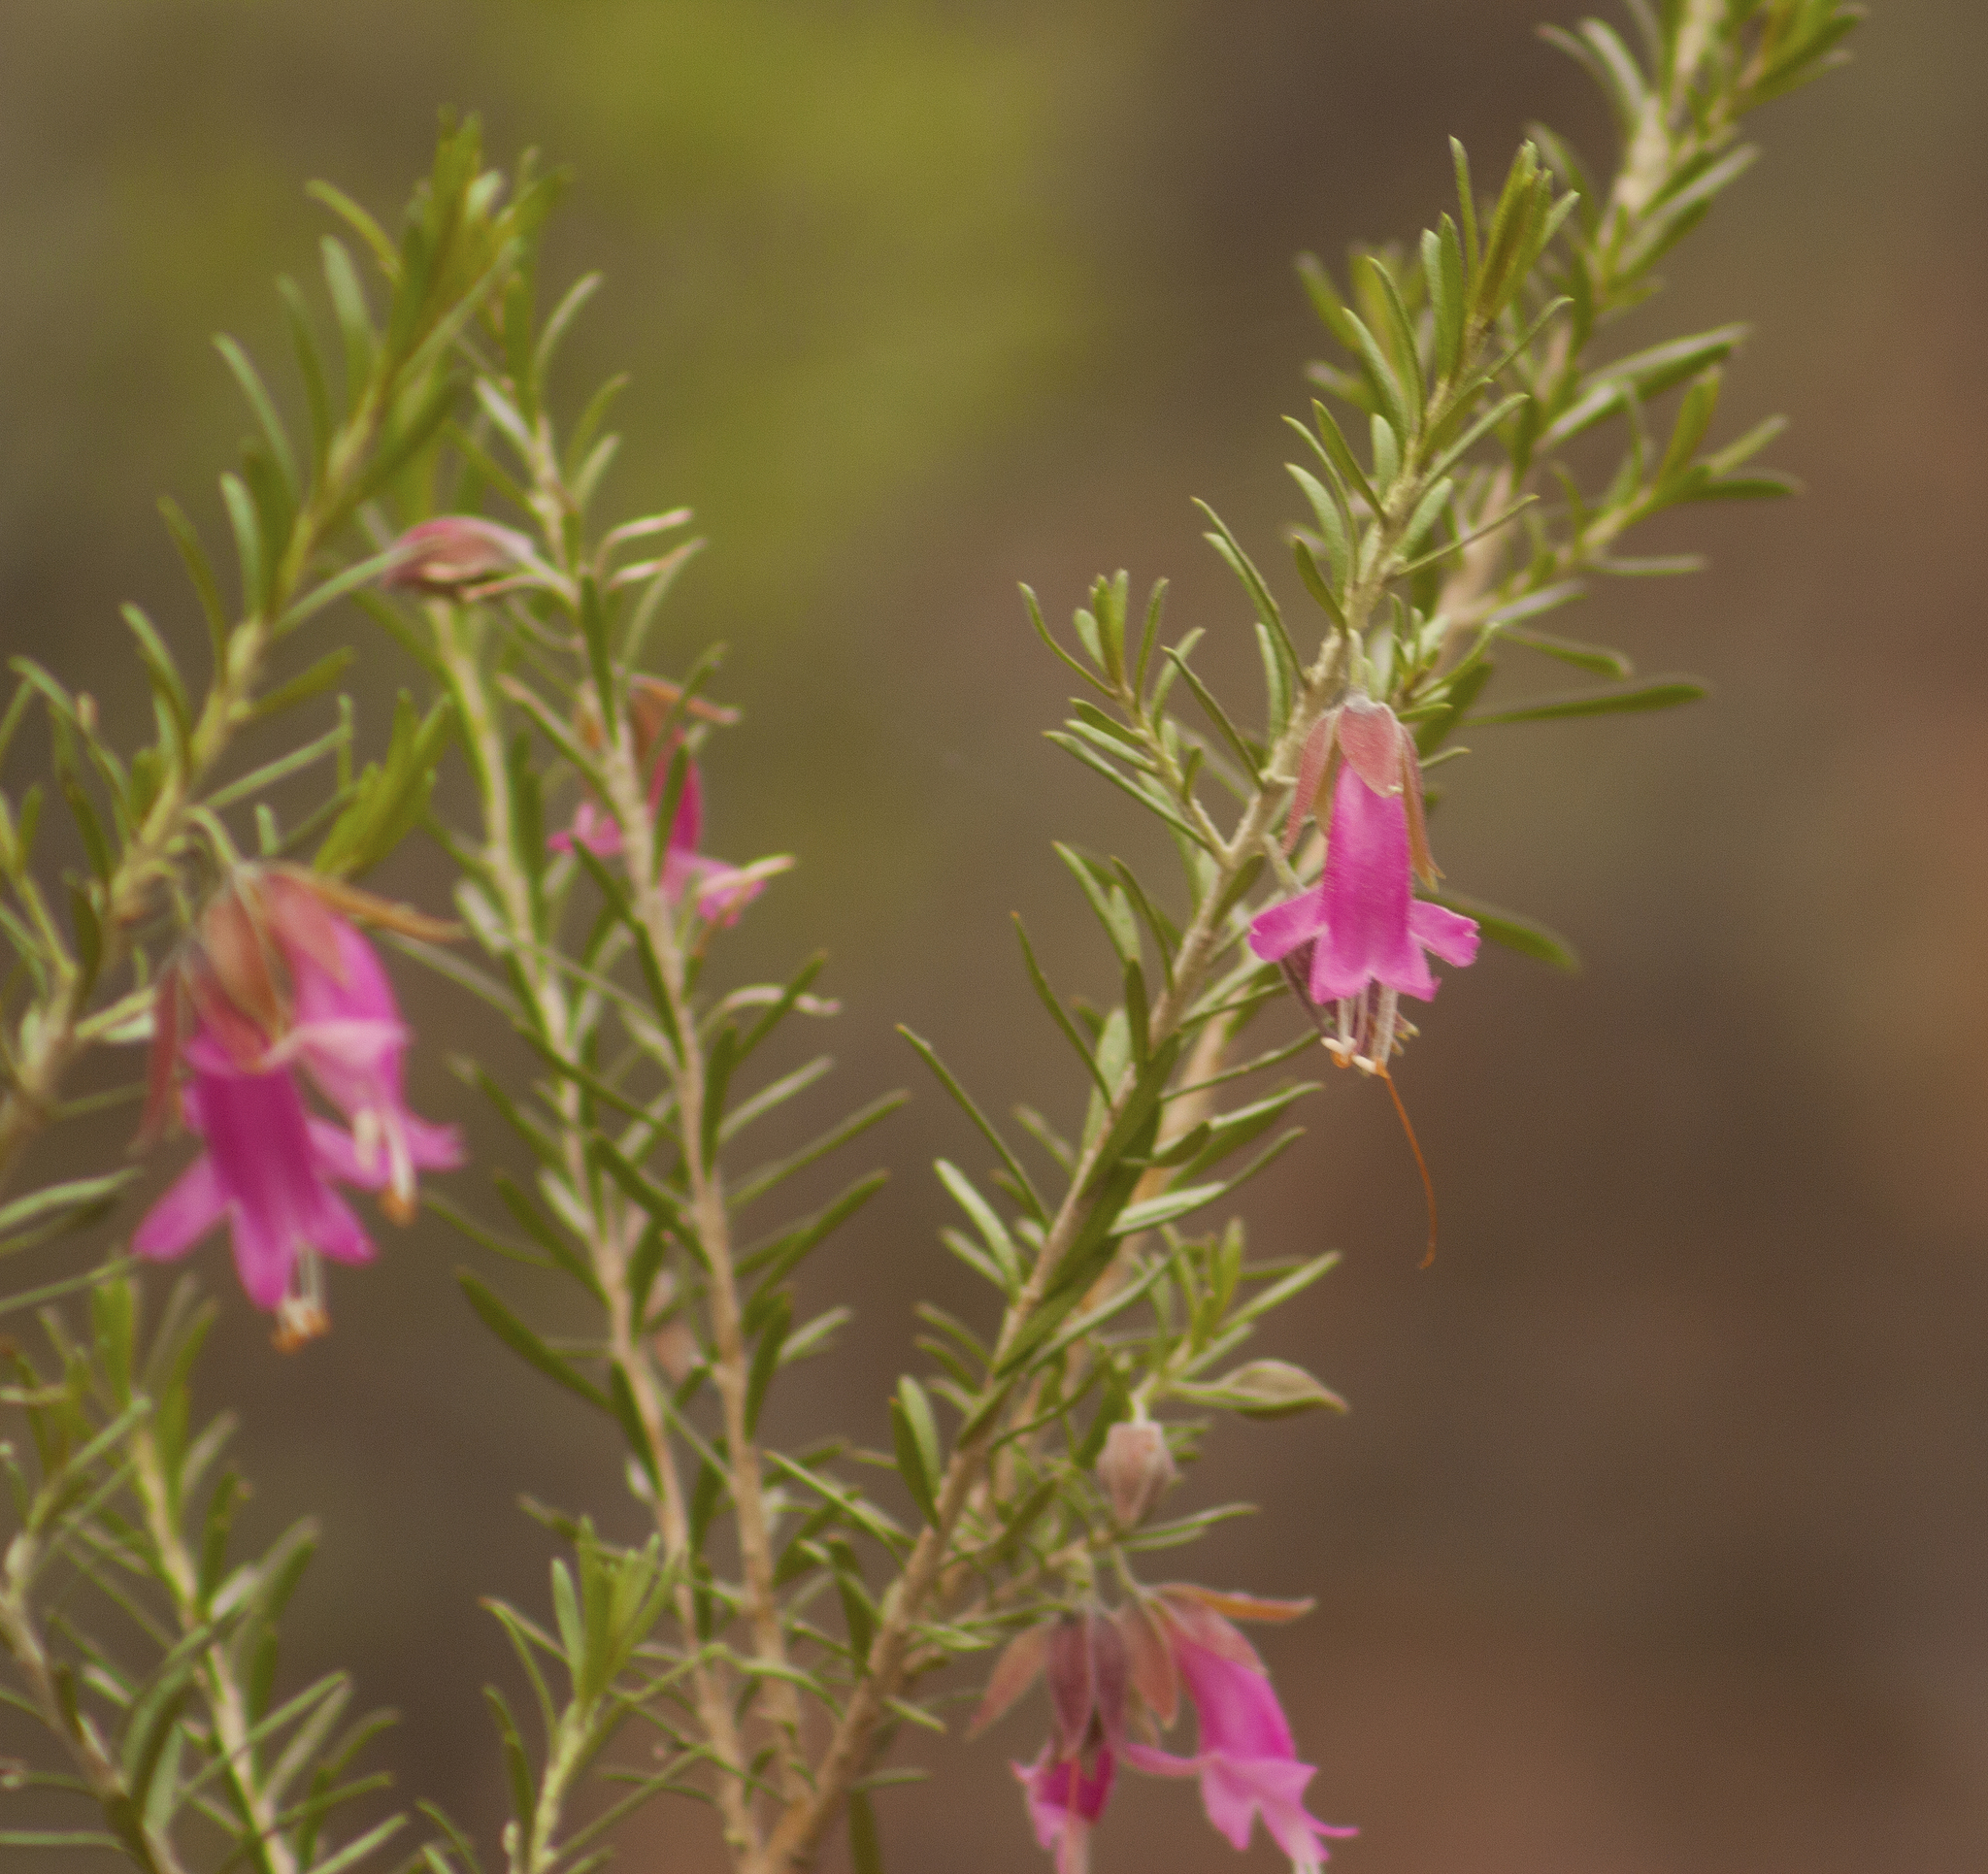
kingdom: Plantae
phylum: Tracheophyta
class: Magnoliopsida
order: Lamiales
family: Scrophulariaceae
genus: Eremophila
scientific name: Eremophila latrobei
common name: Crimson turkeybush
